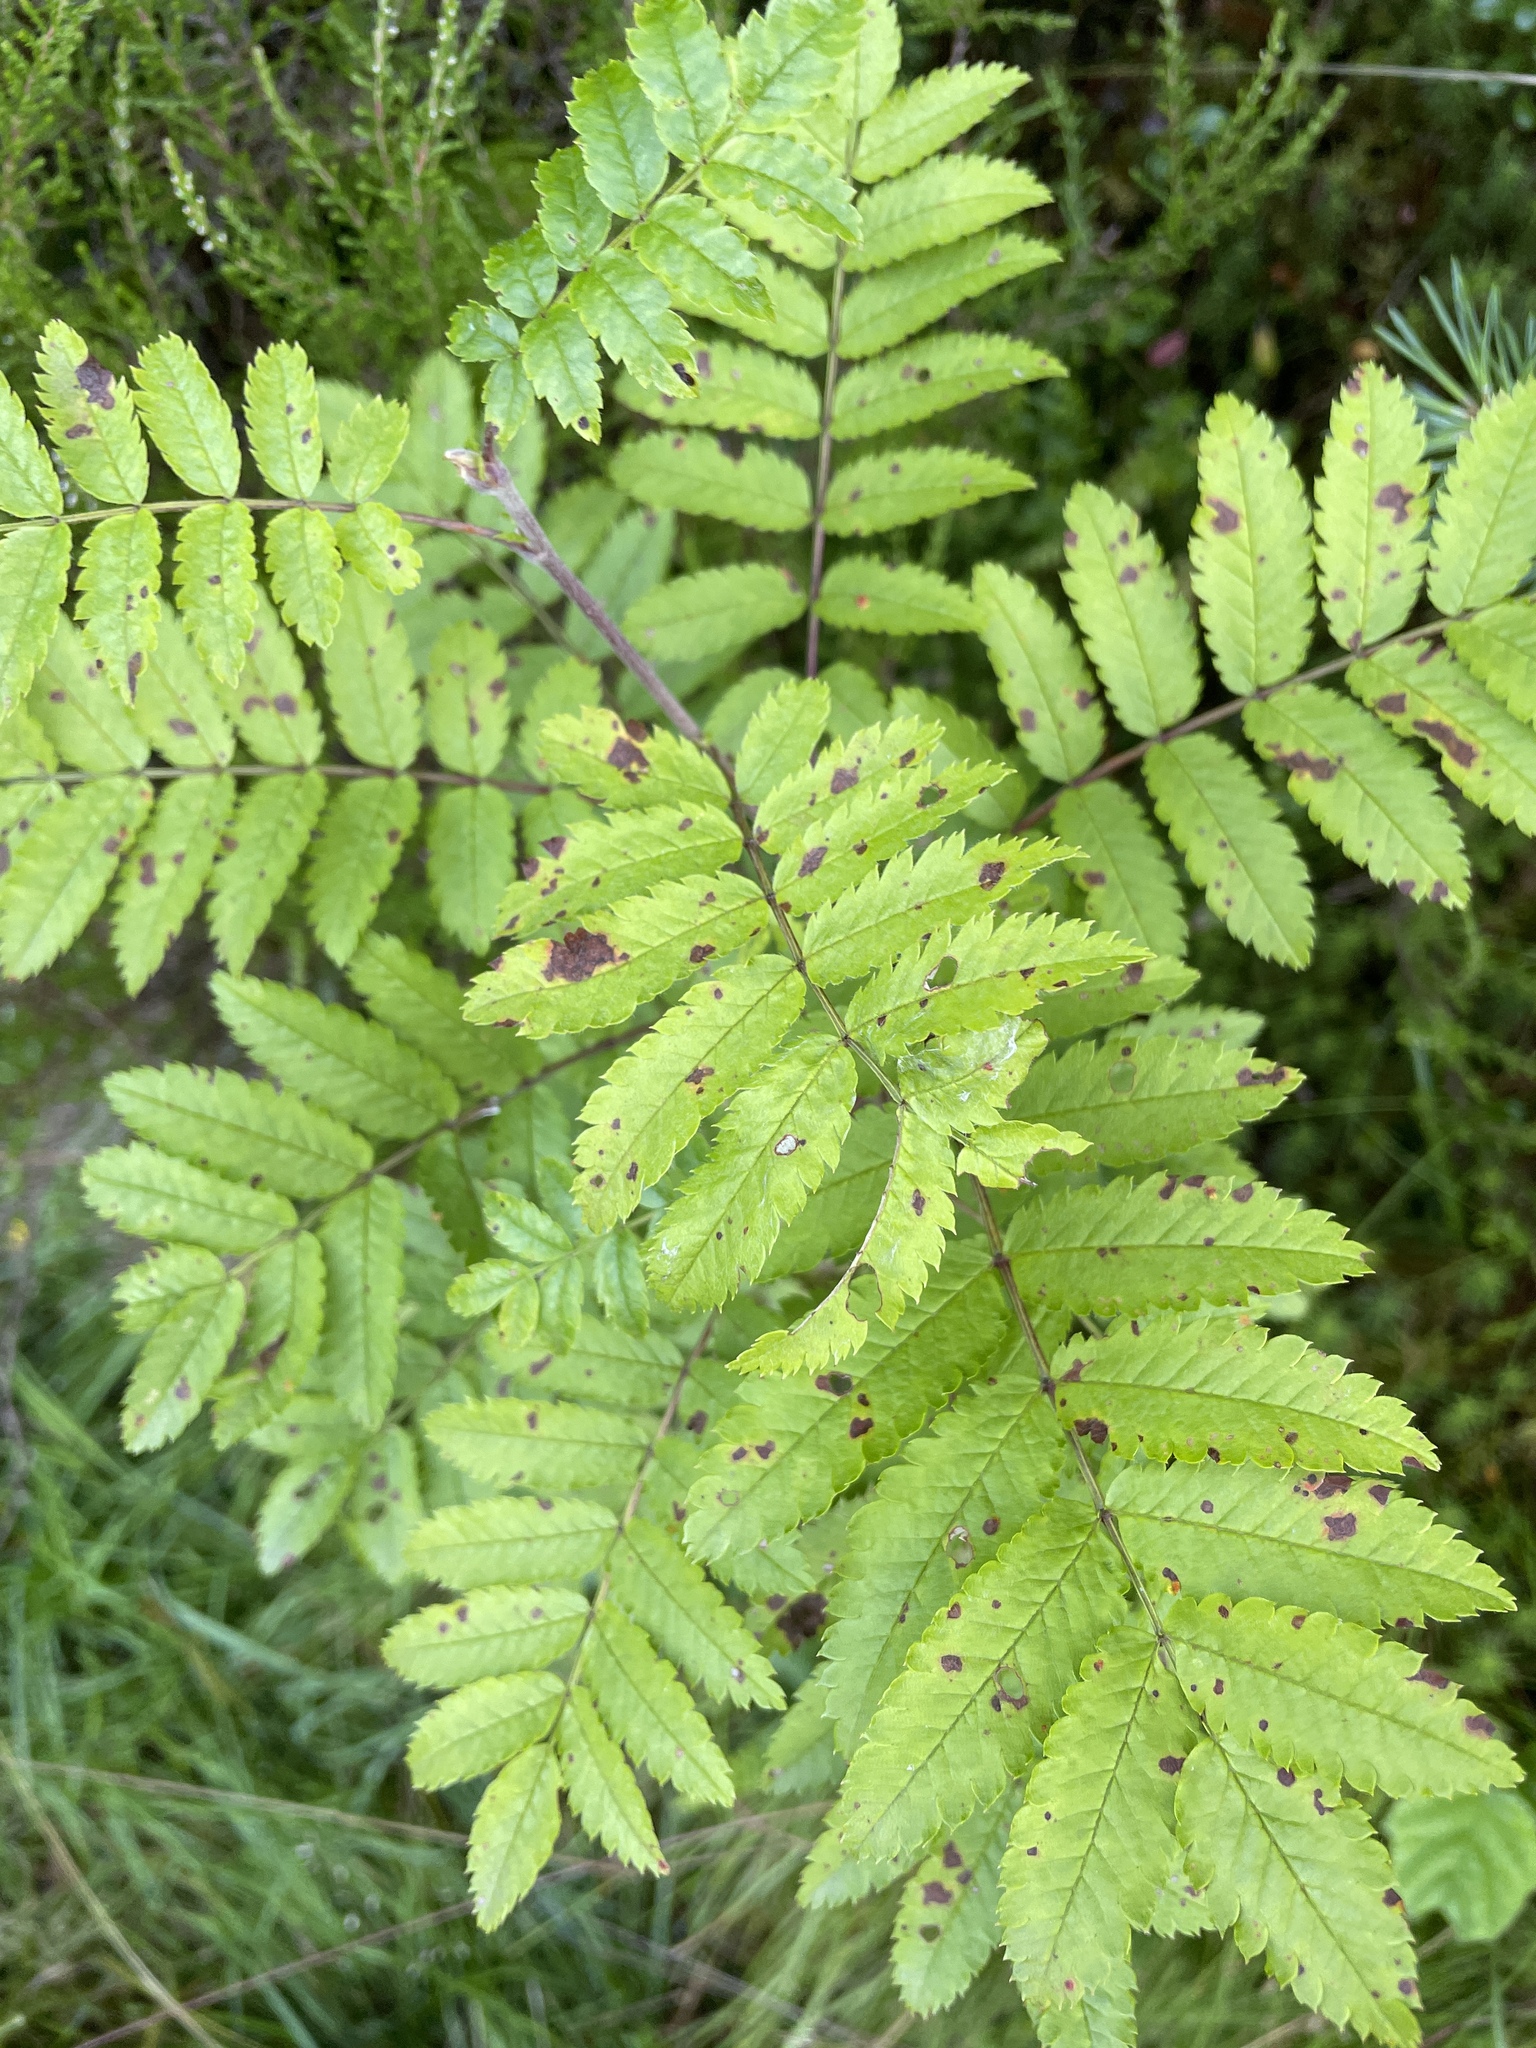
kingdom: Plantae
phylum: Tracheophyta
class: Magnoliopsida
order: Rosales
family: Rosaceae
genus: Sorbus
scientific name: Sorbus aucuparia
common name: Rowan
